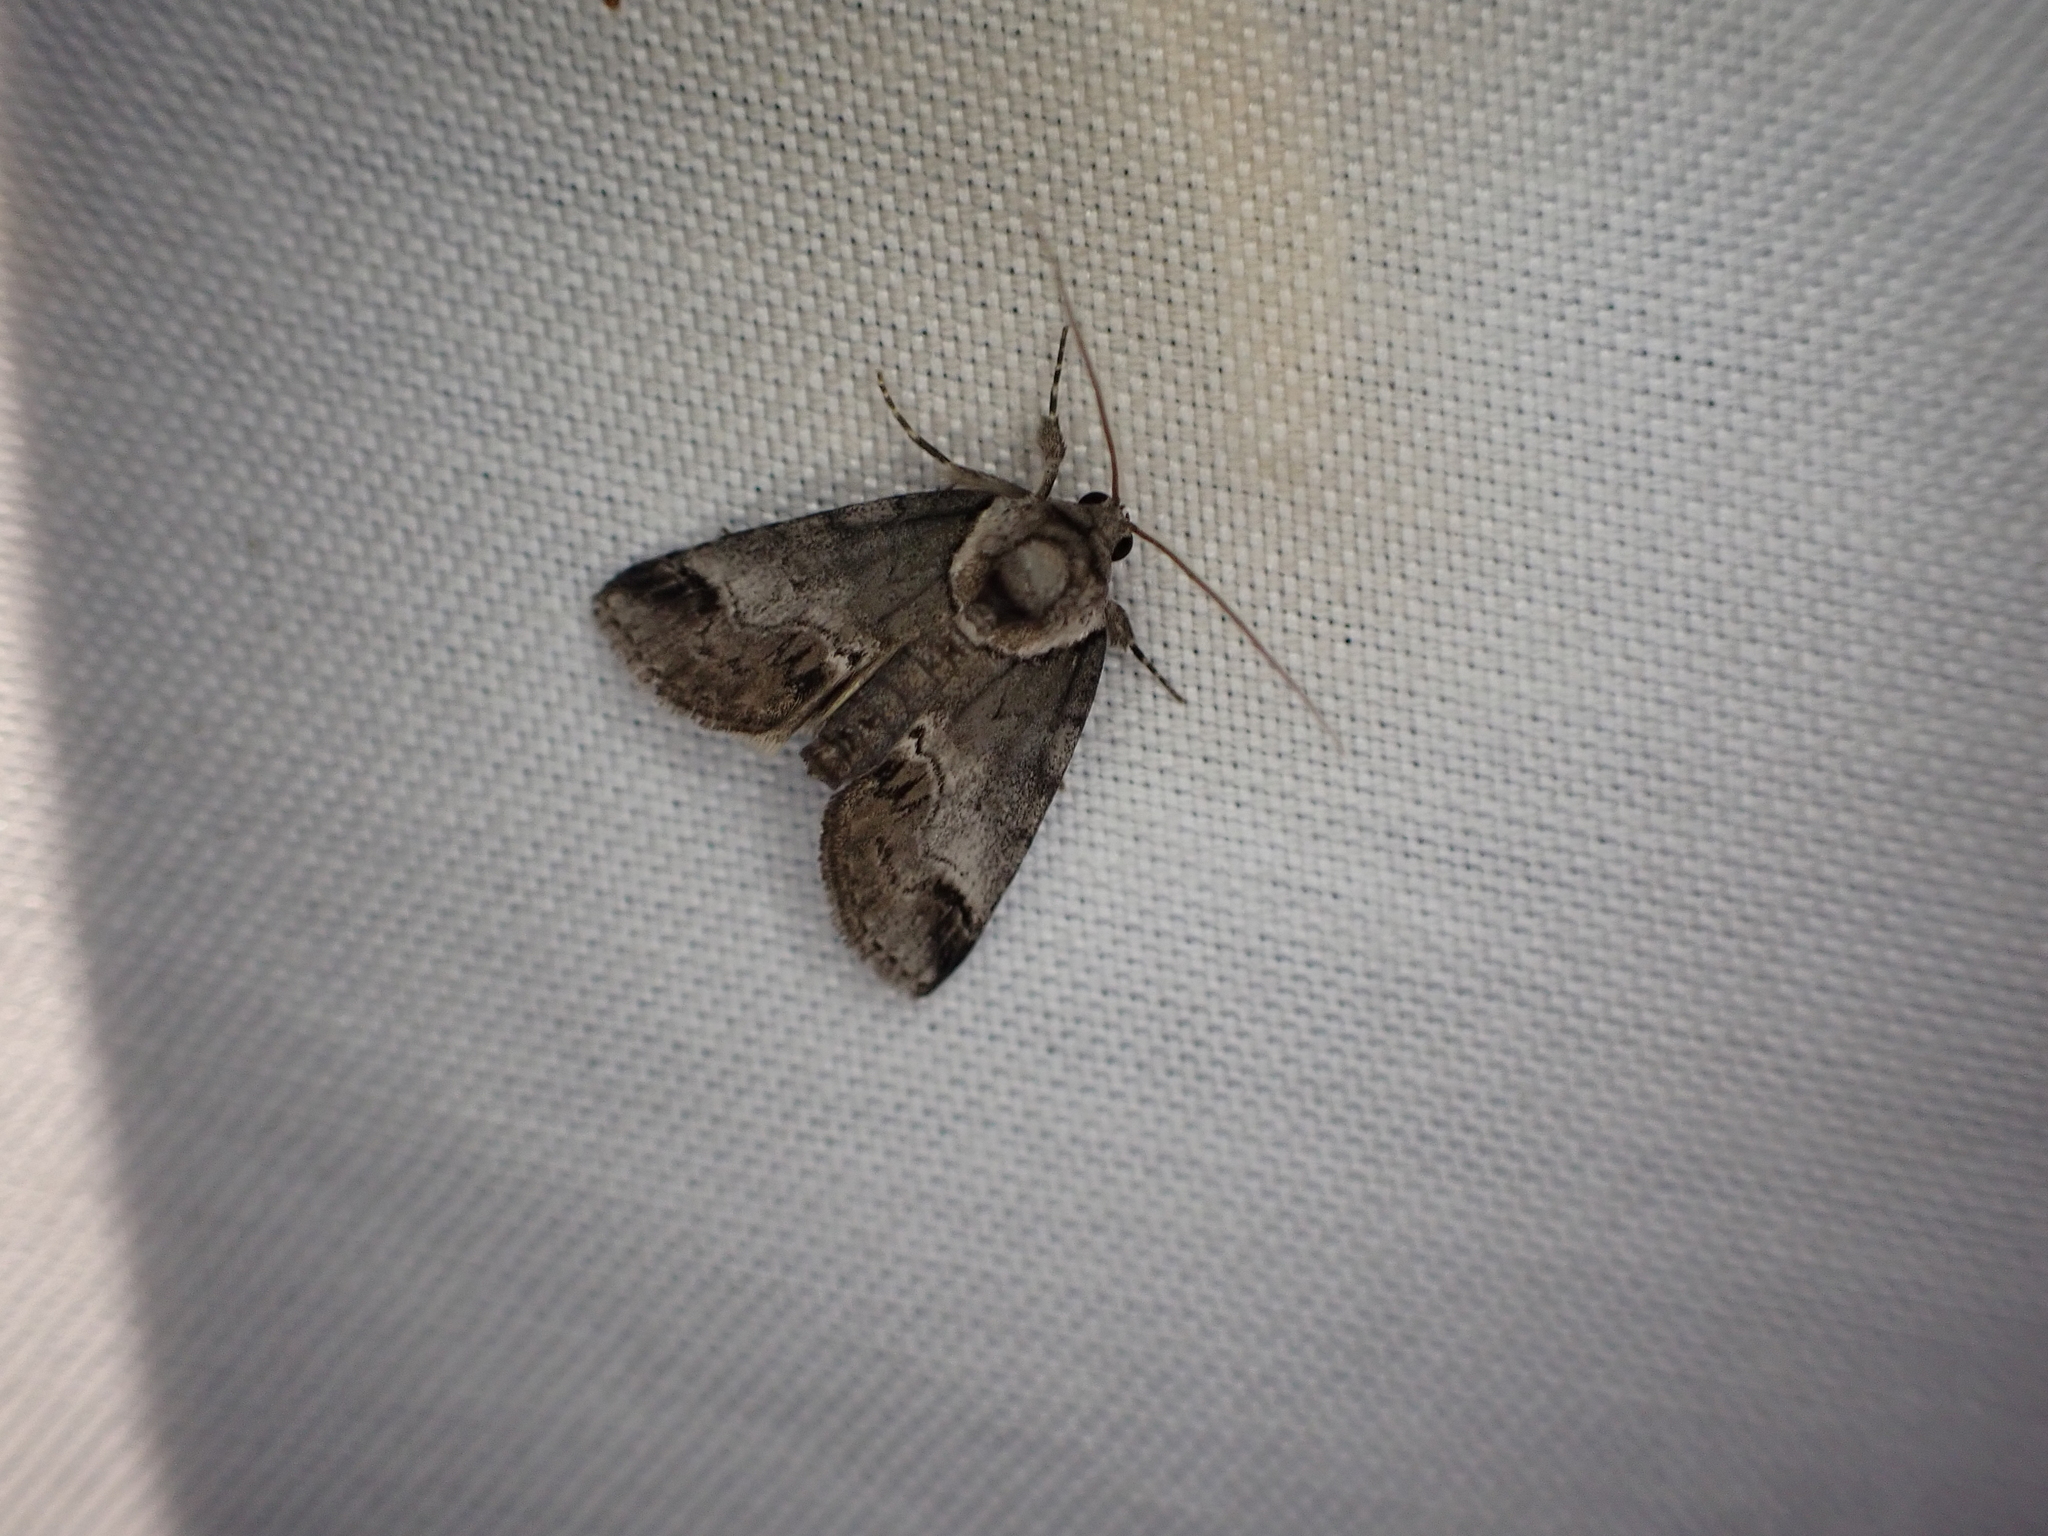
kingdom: Animalia
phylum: Arthropoda
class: Insecta
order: Lepidoptera
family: Nolidae
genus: Baileya
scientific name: Baileya australis
